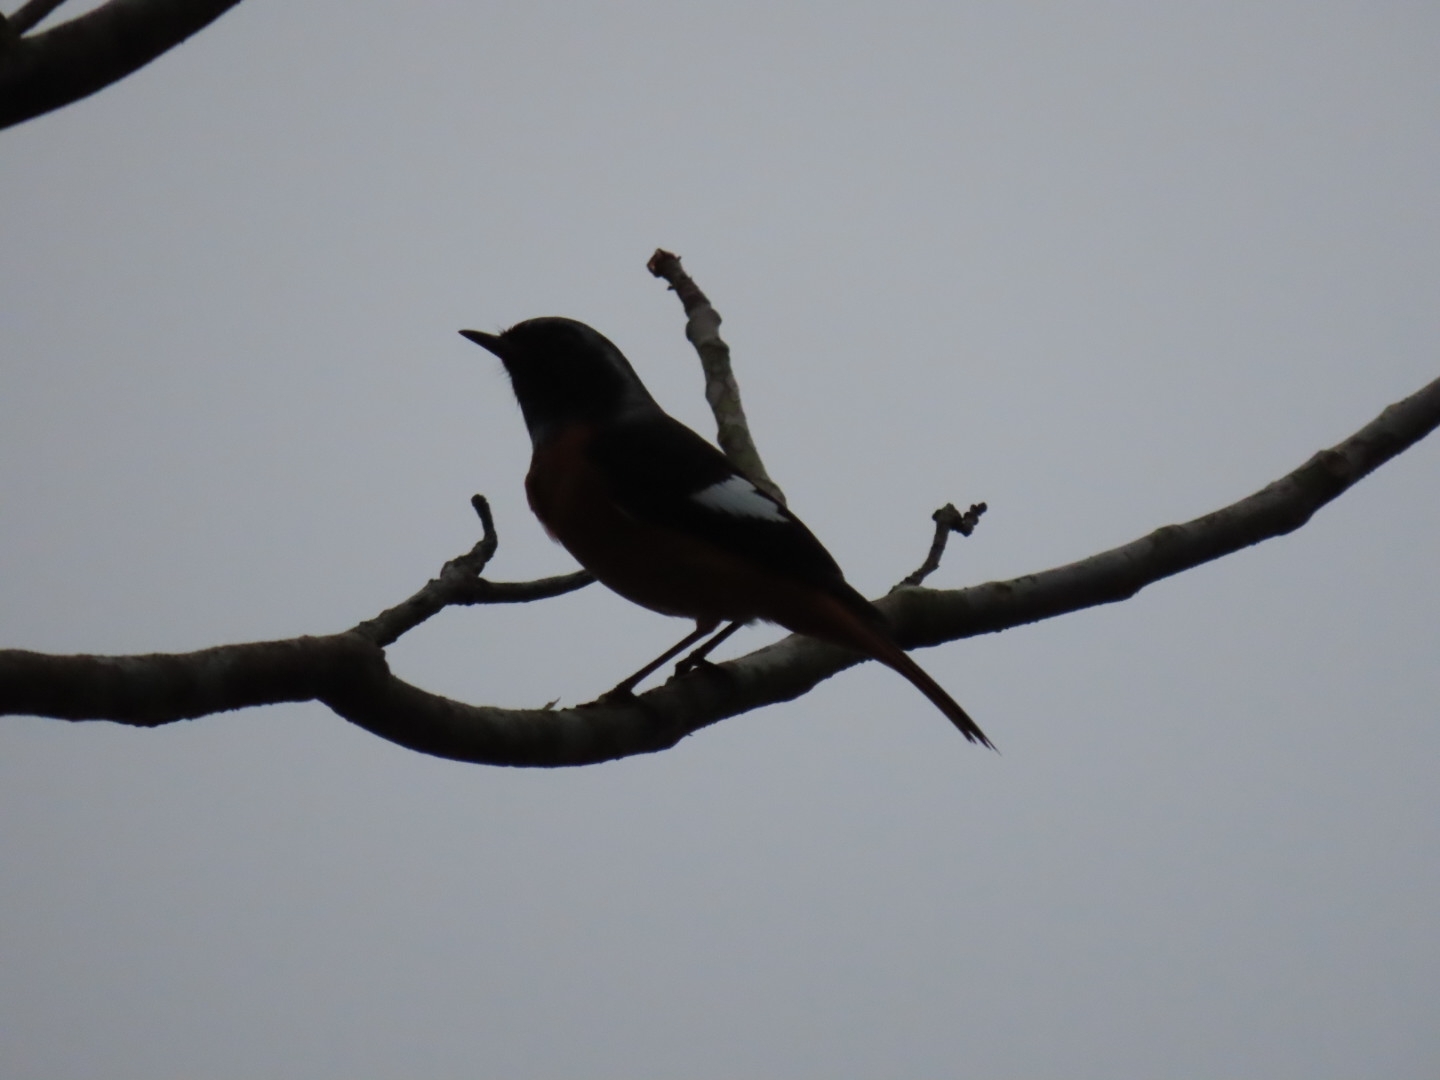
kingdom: Animalia
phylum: Chordata
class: Aves
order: Passeriformes
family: Muscicapidae
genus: Phoenicurus
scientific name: Phoenicurus auroreus
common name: Daurian redstart
